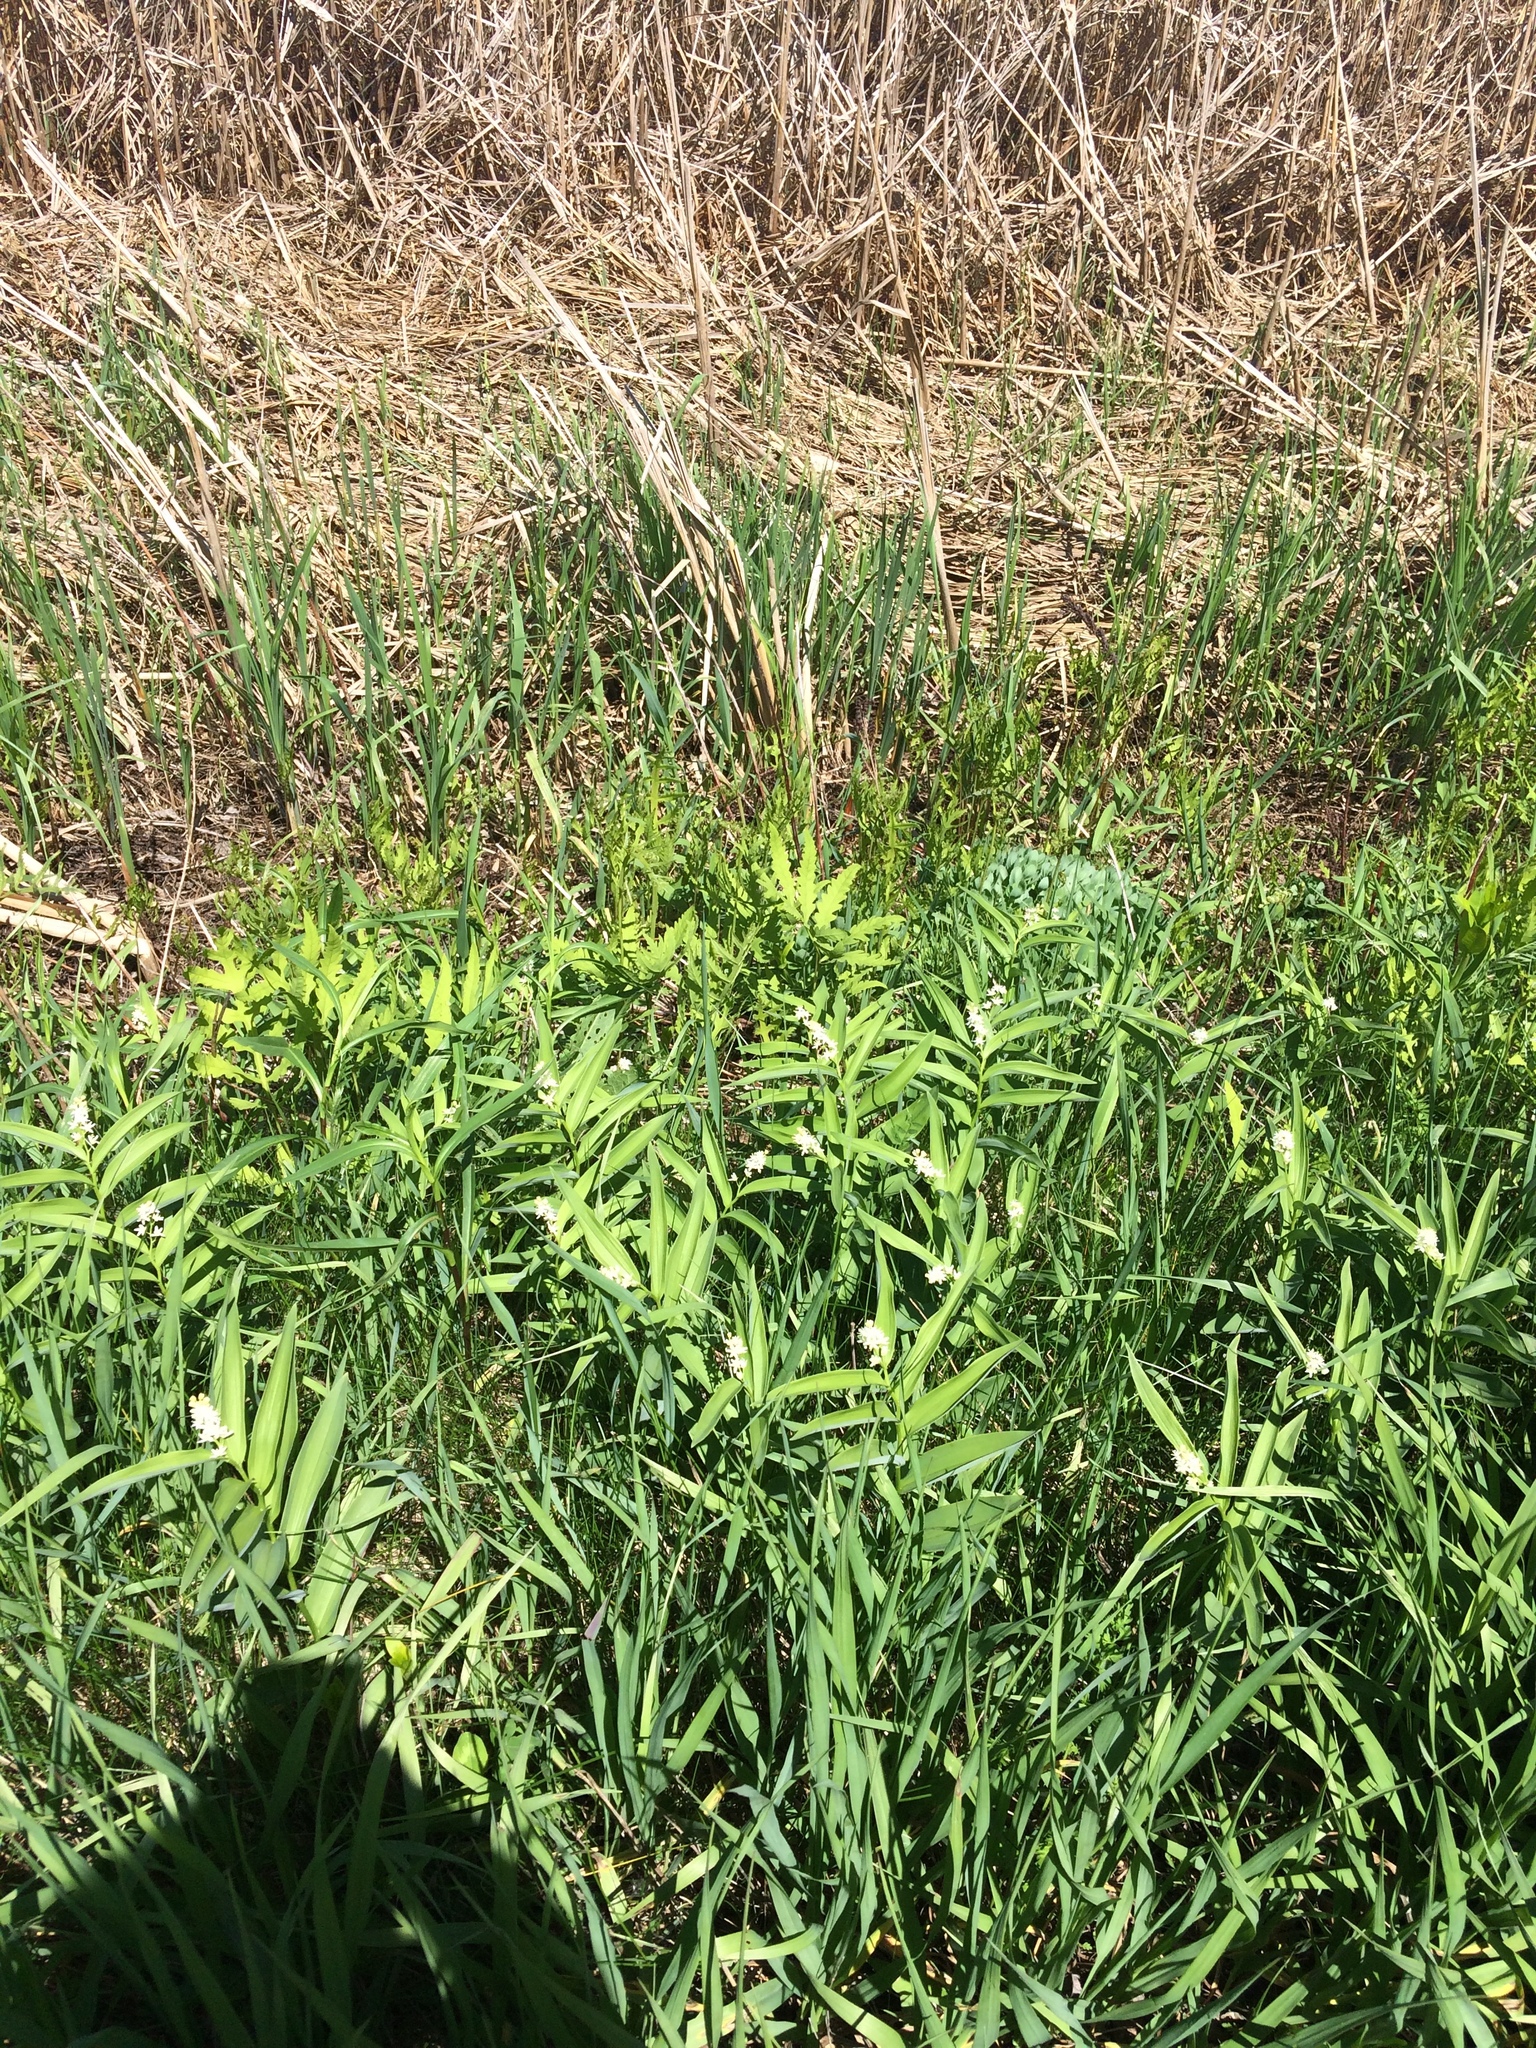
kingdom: Plantae
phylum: Tracheophyta
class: Polypodiopsida
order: Polypodiales
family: Onocleaceae
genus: Onoclea
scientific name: Onoclea sensibilis
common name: Sensitive fern
